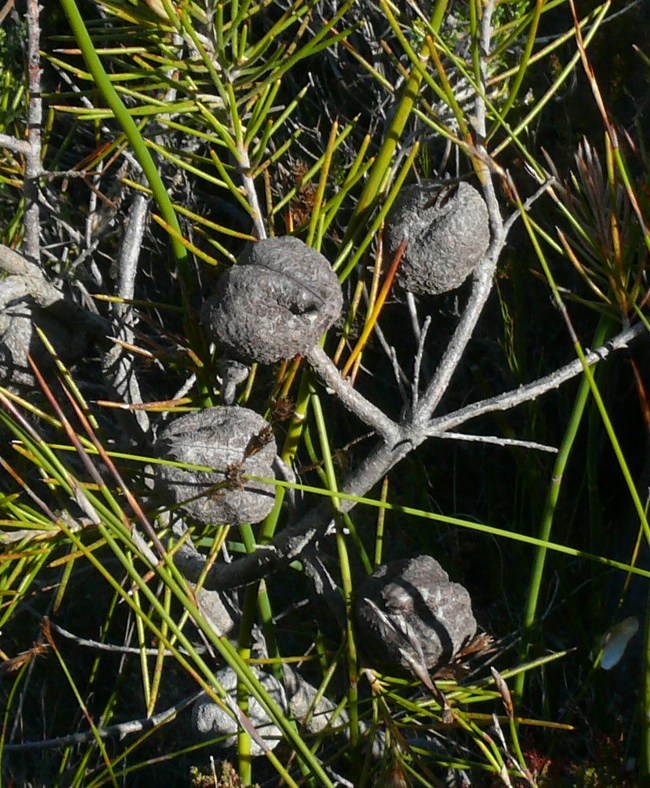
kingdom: Plantae
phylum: Tracheophyta
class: Magnoliopsida
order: Proteales
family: Proteaceae
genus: Hakea
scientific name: Hakea gibbosa
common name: Rock hakea
